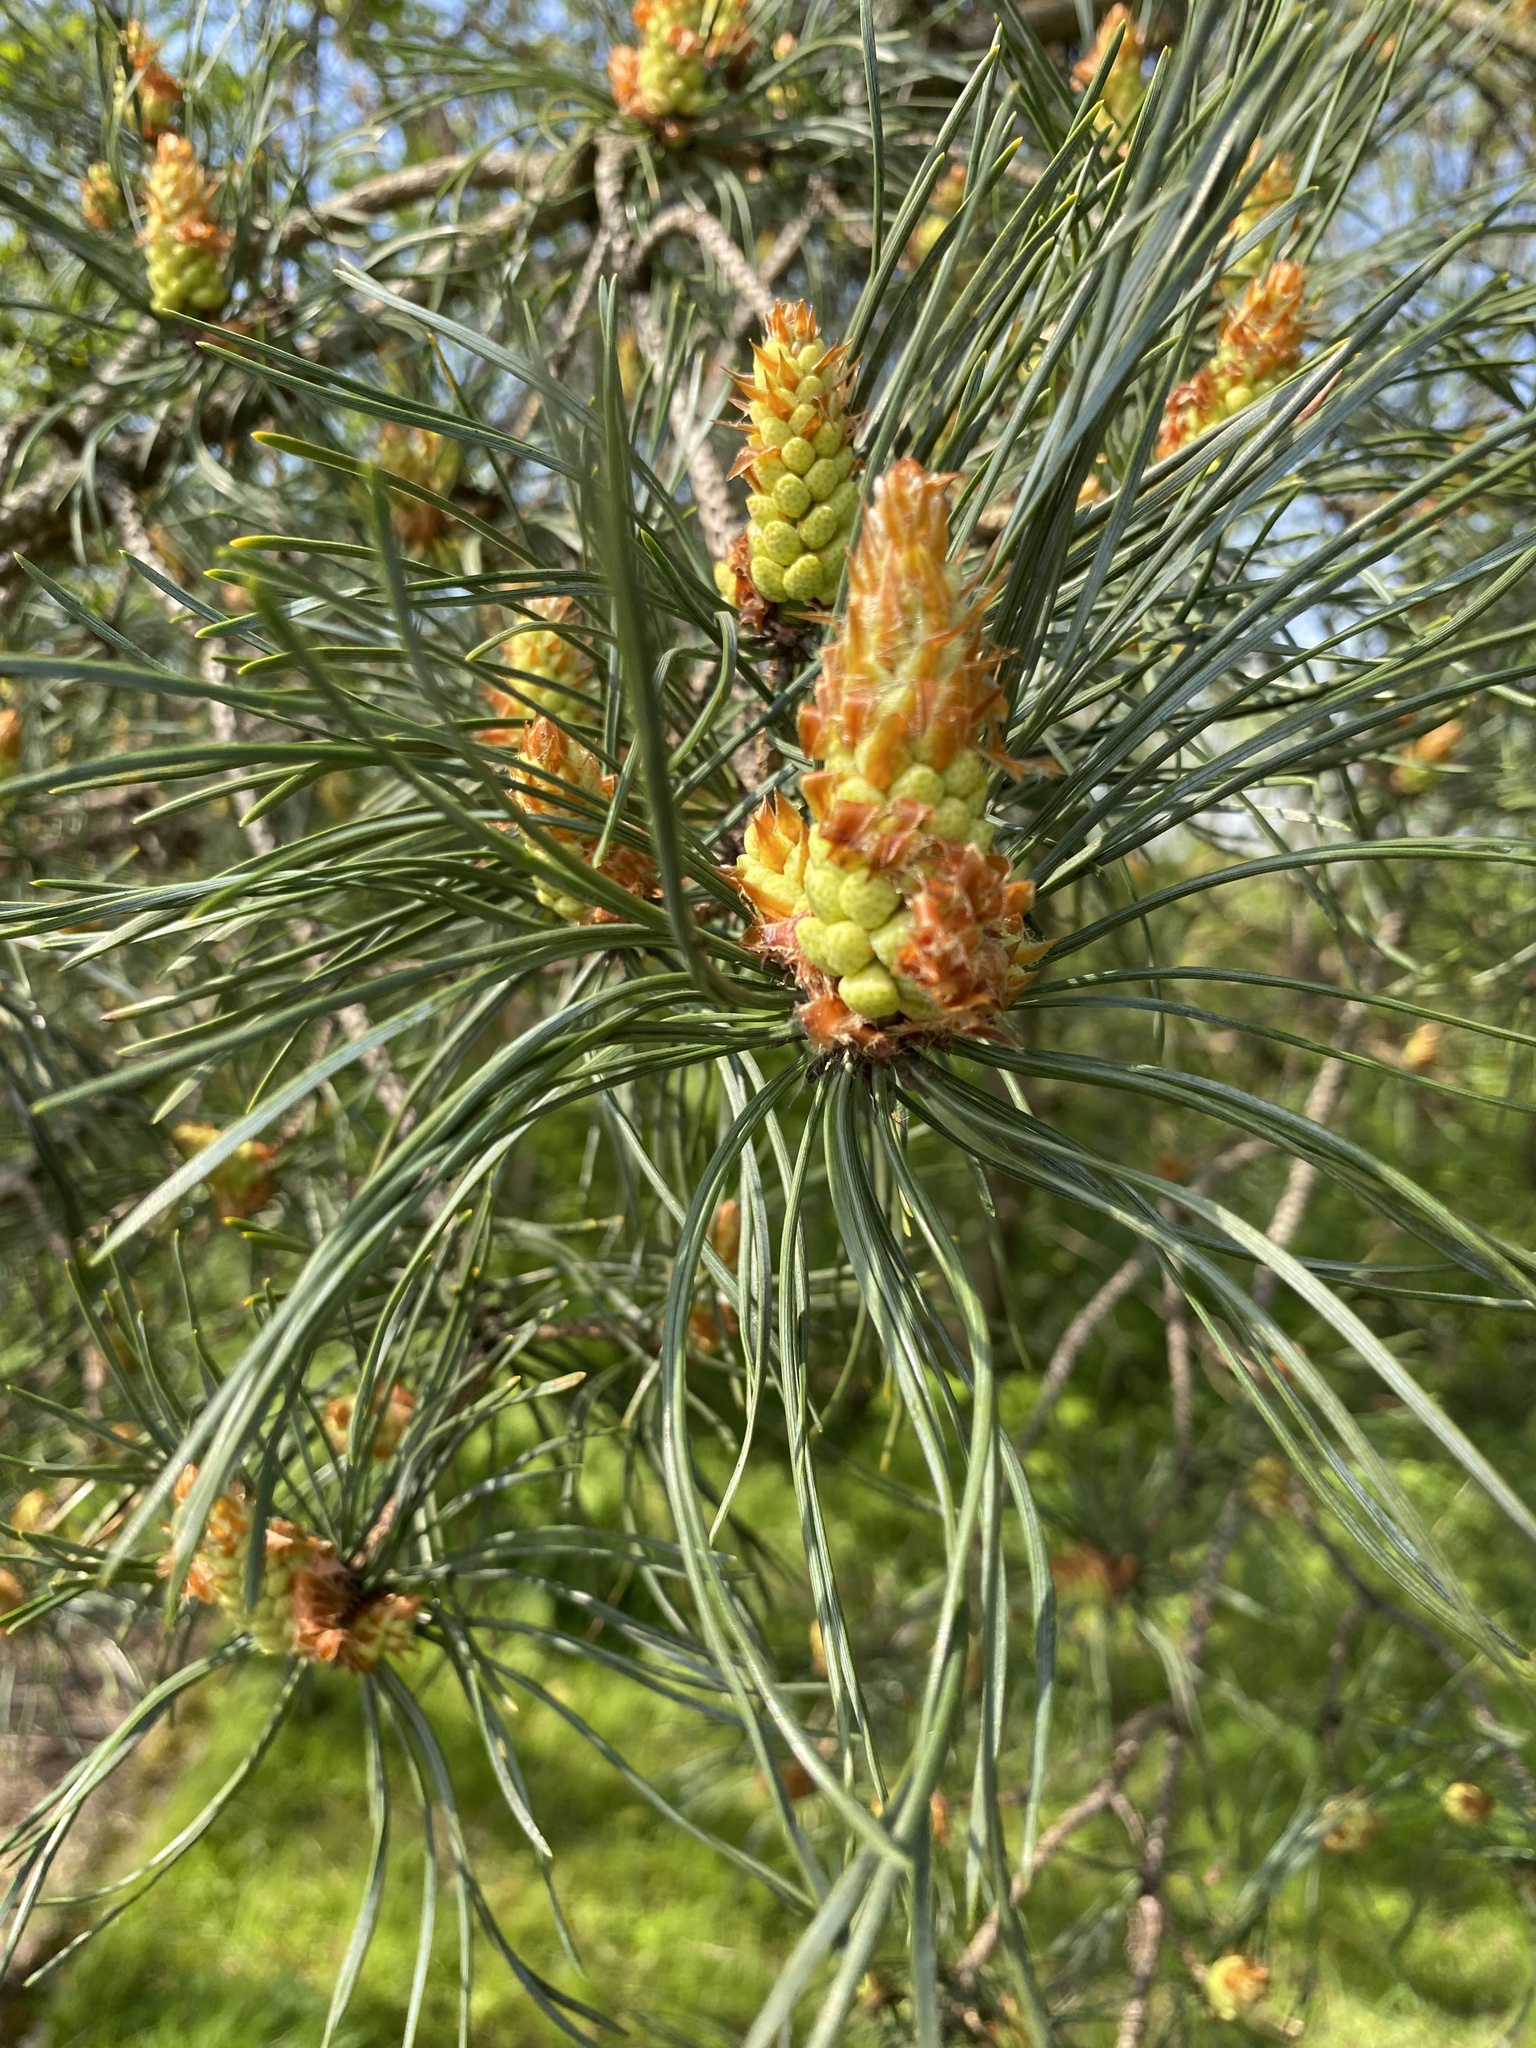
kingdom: Plantae
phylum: Tracheophyta
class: Pinopsida
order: Pinales
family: Pinaceae
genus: Pinus
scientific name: Pinus sylvestris
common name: Scots pine
